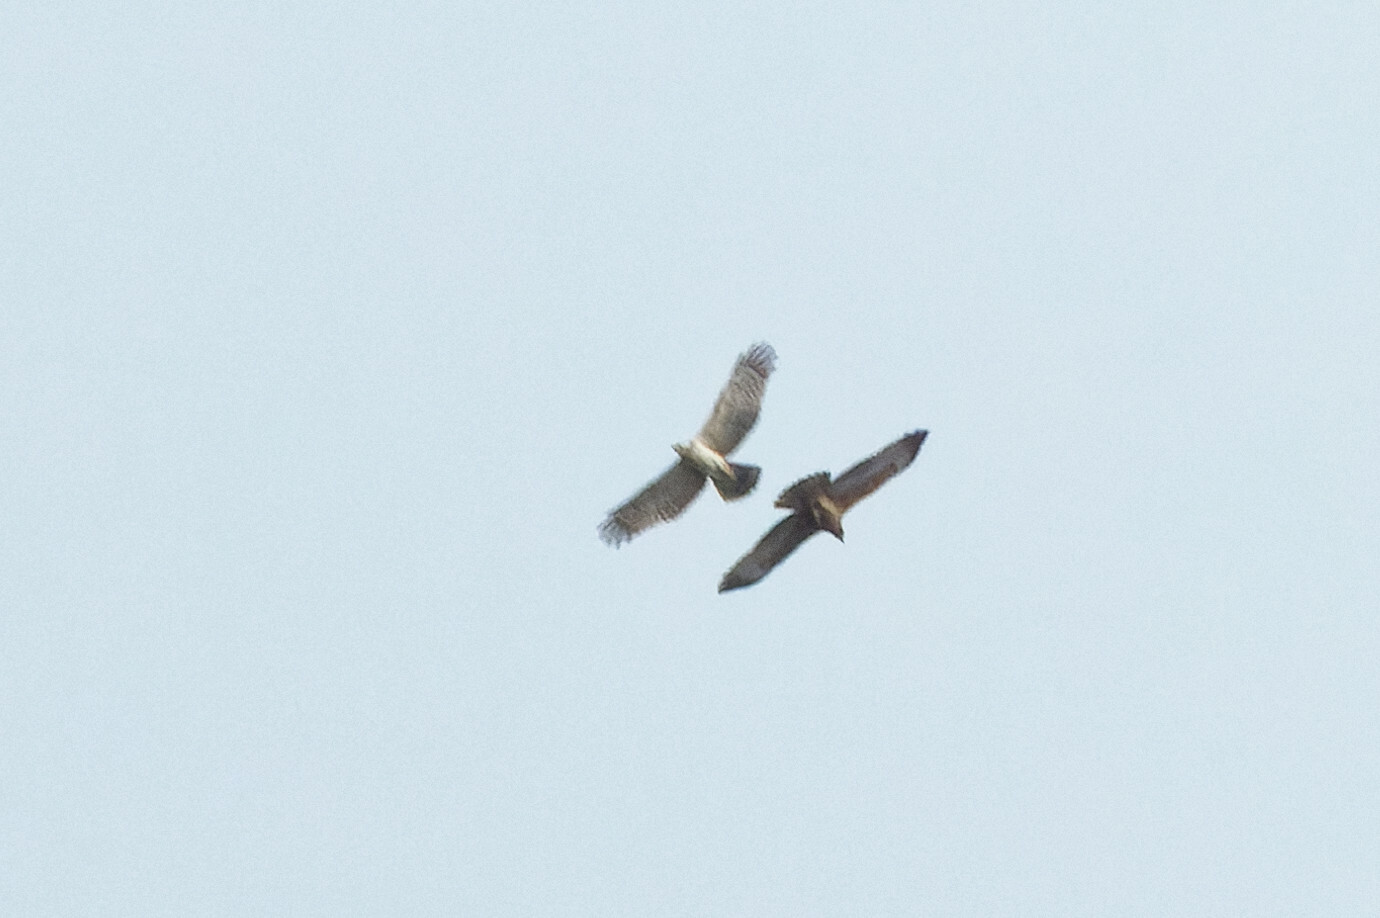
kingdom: Animalia
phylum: Chordata
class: Aves
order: Accipitriformes
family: Accipitridae
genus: Pernis
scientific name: Pernis ptilorhynchus
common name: Crested honey buzzard
